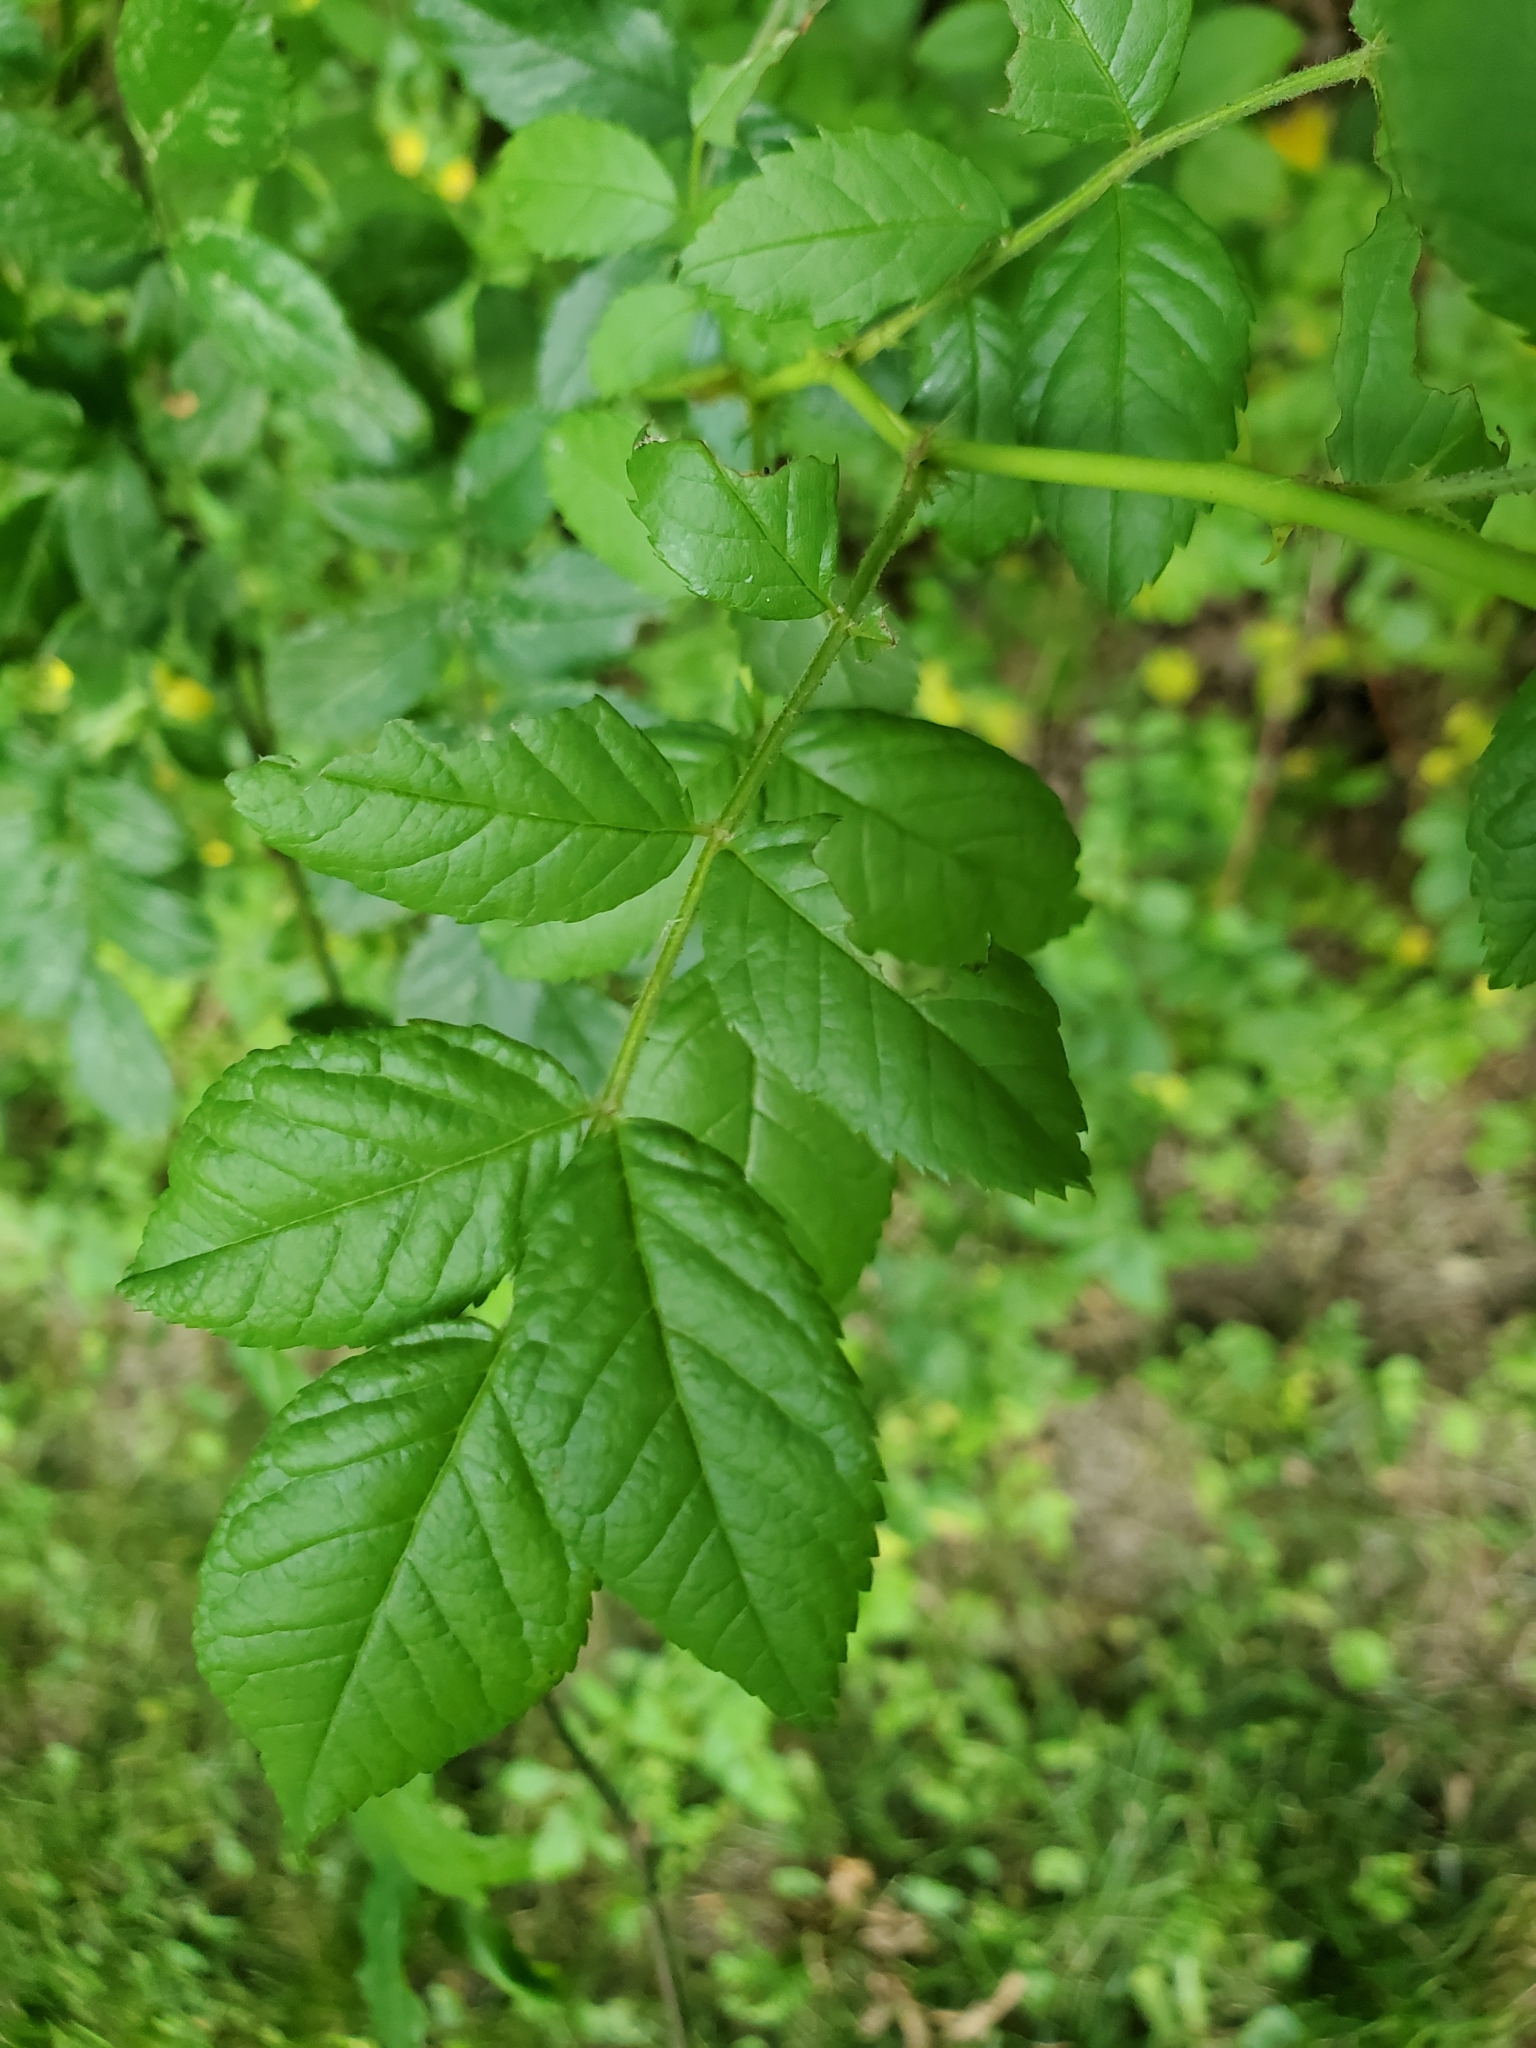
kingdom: Plantae
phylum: Tracheophyta
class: Magnoliopsida
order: Rosales
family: Rosaceae
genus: Rosa
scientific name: Rosa multiflora
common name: Multiflora rose
